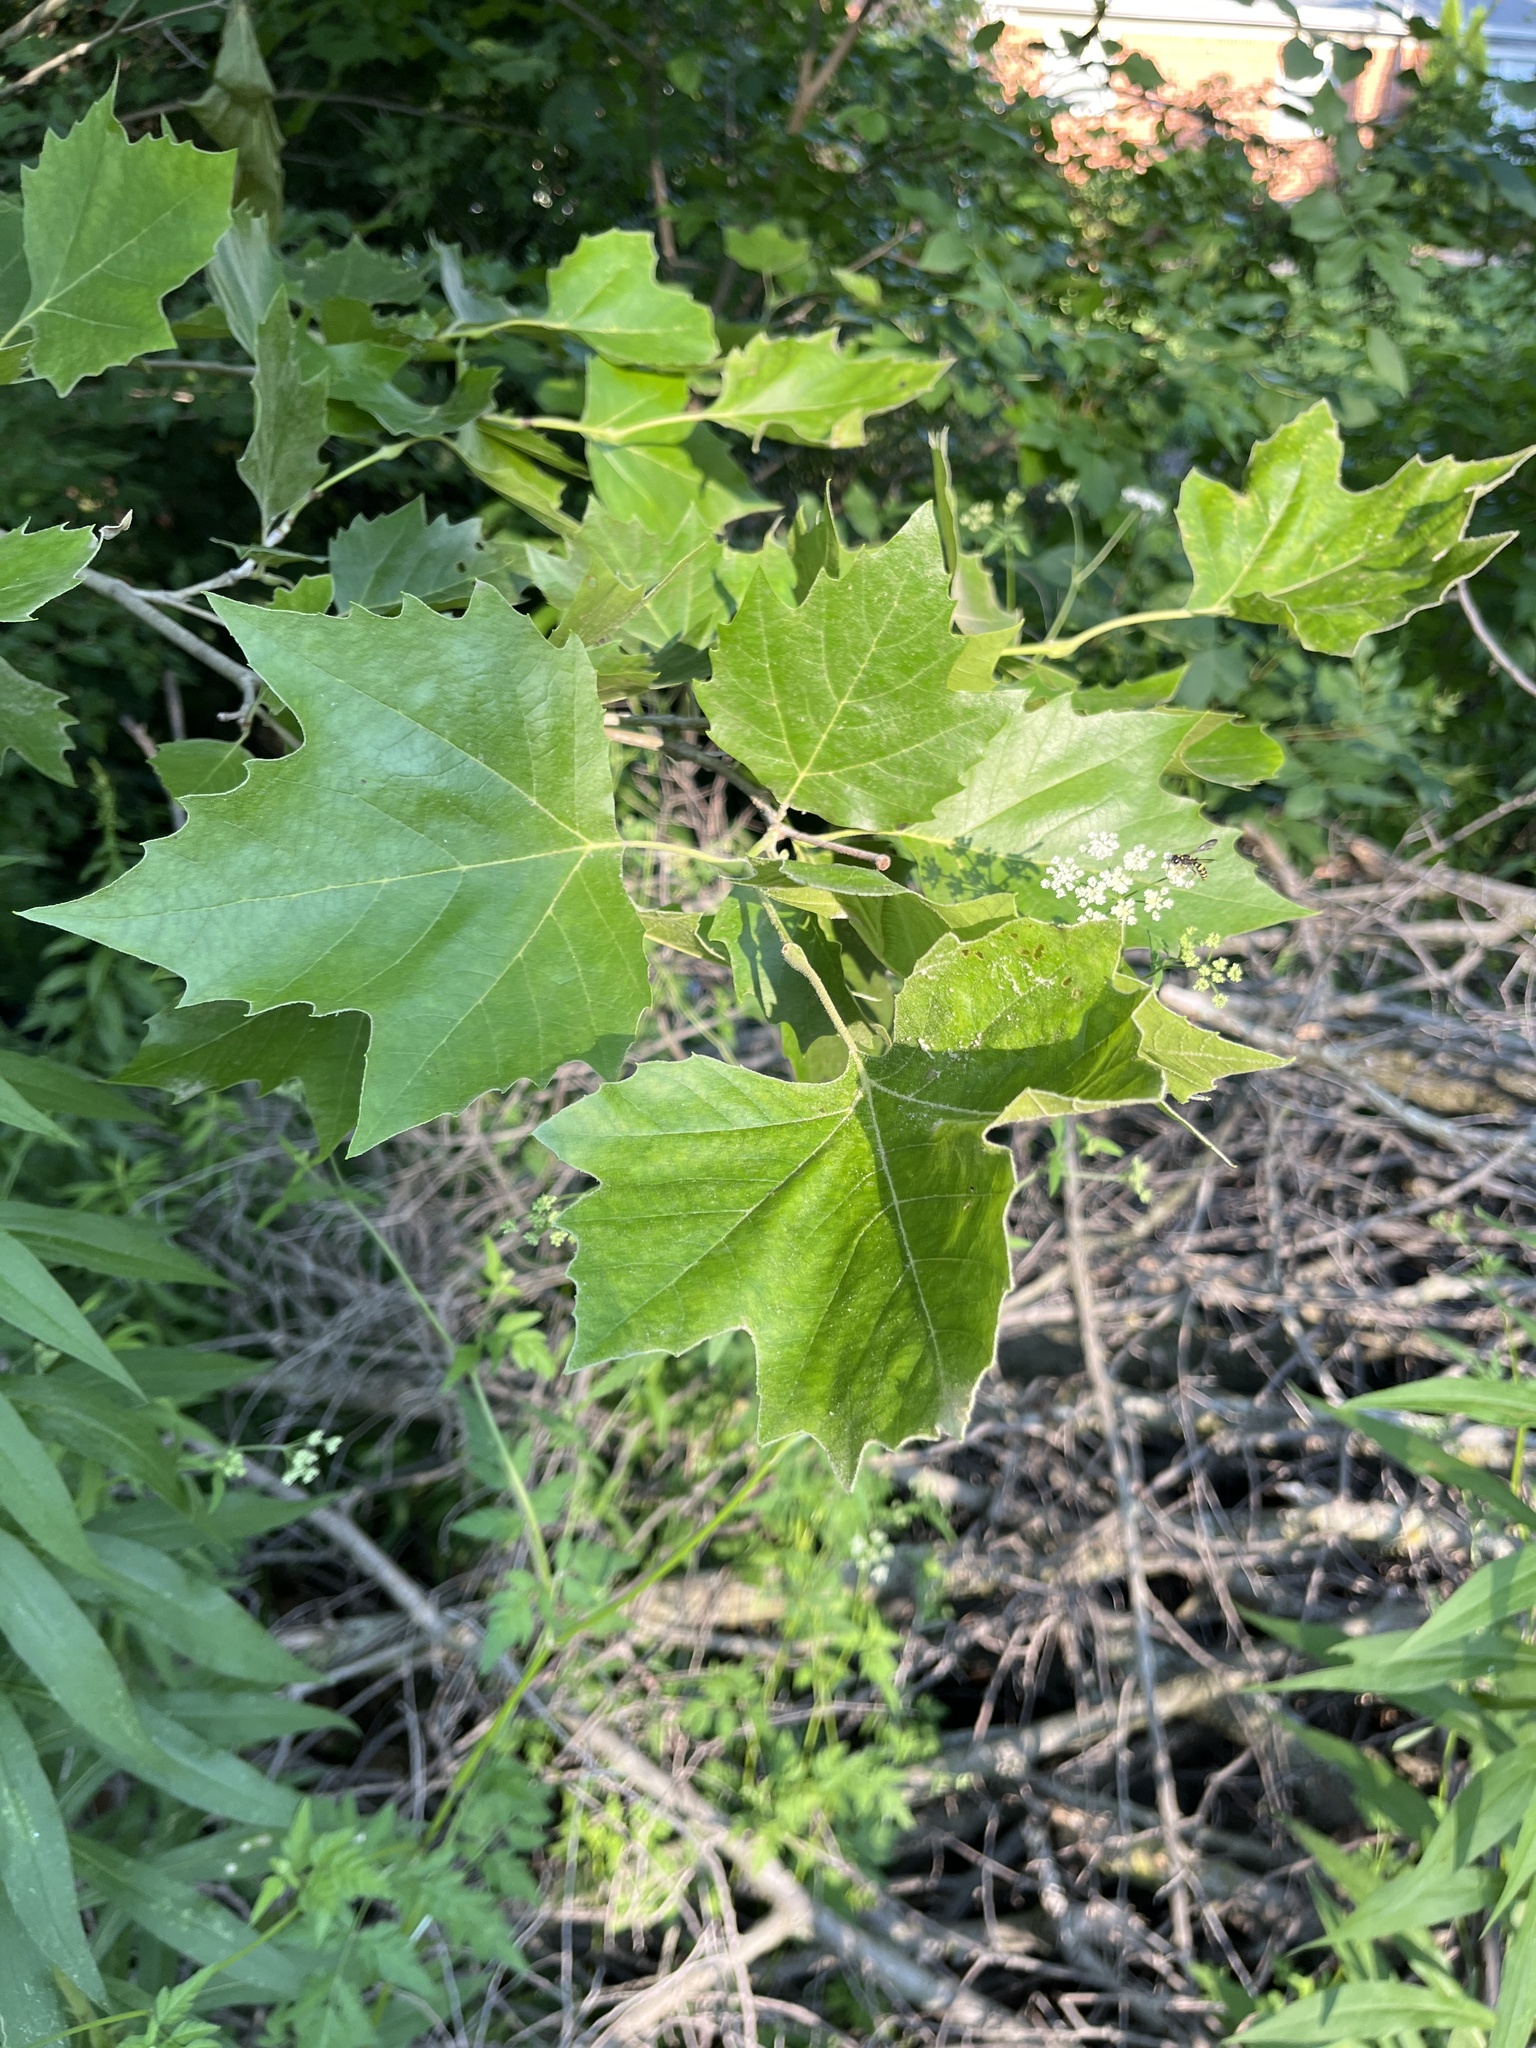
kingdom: Plantae
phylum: Tracheophyta
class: Magnoliopsida
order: Proteales
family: Platanaceae
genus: Platanus
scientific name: Platanus occidentalis
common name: American sycamore
